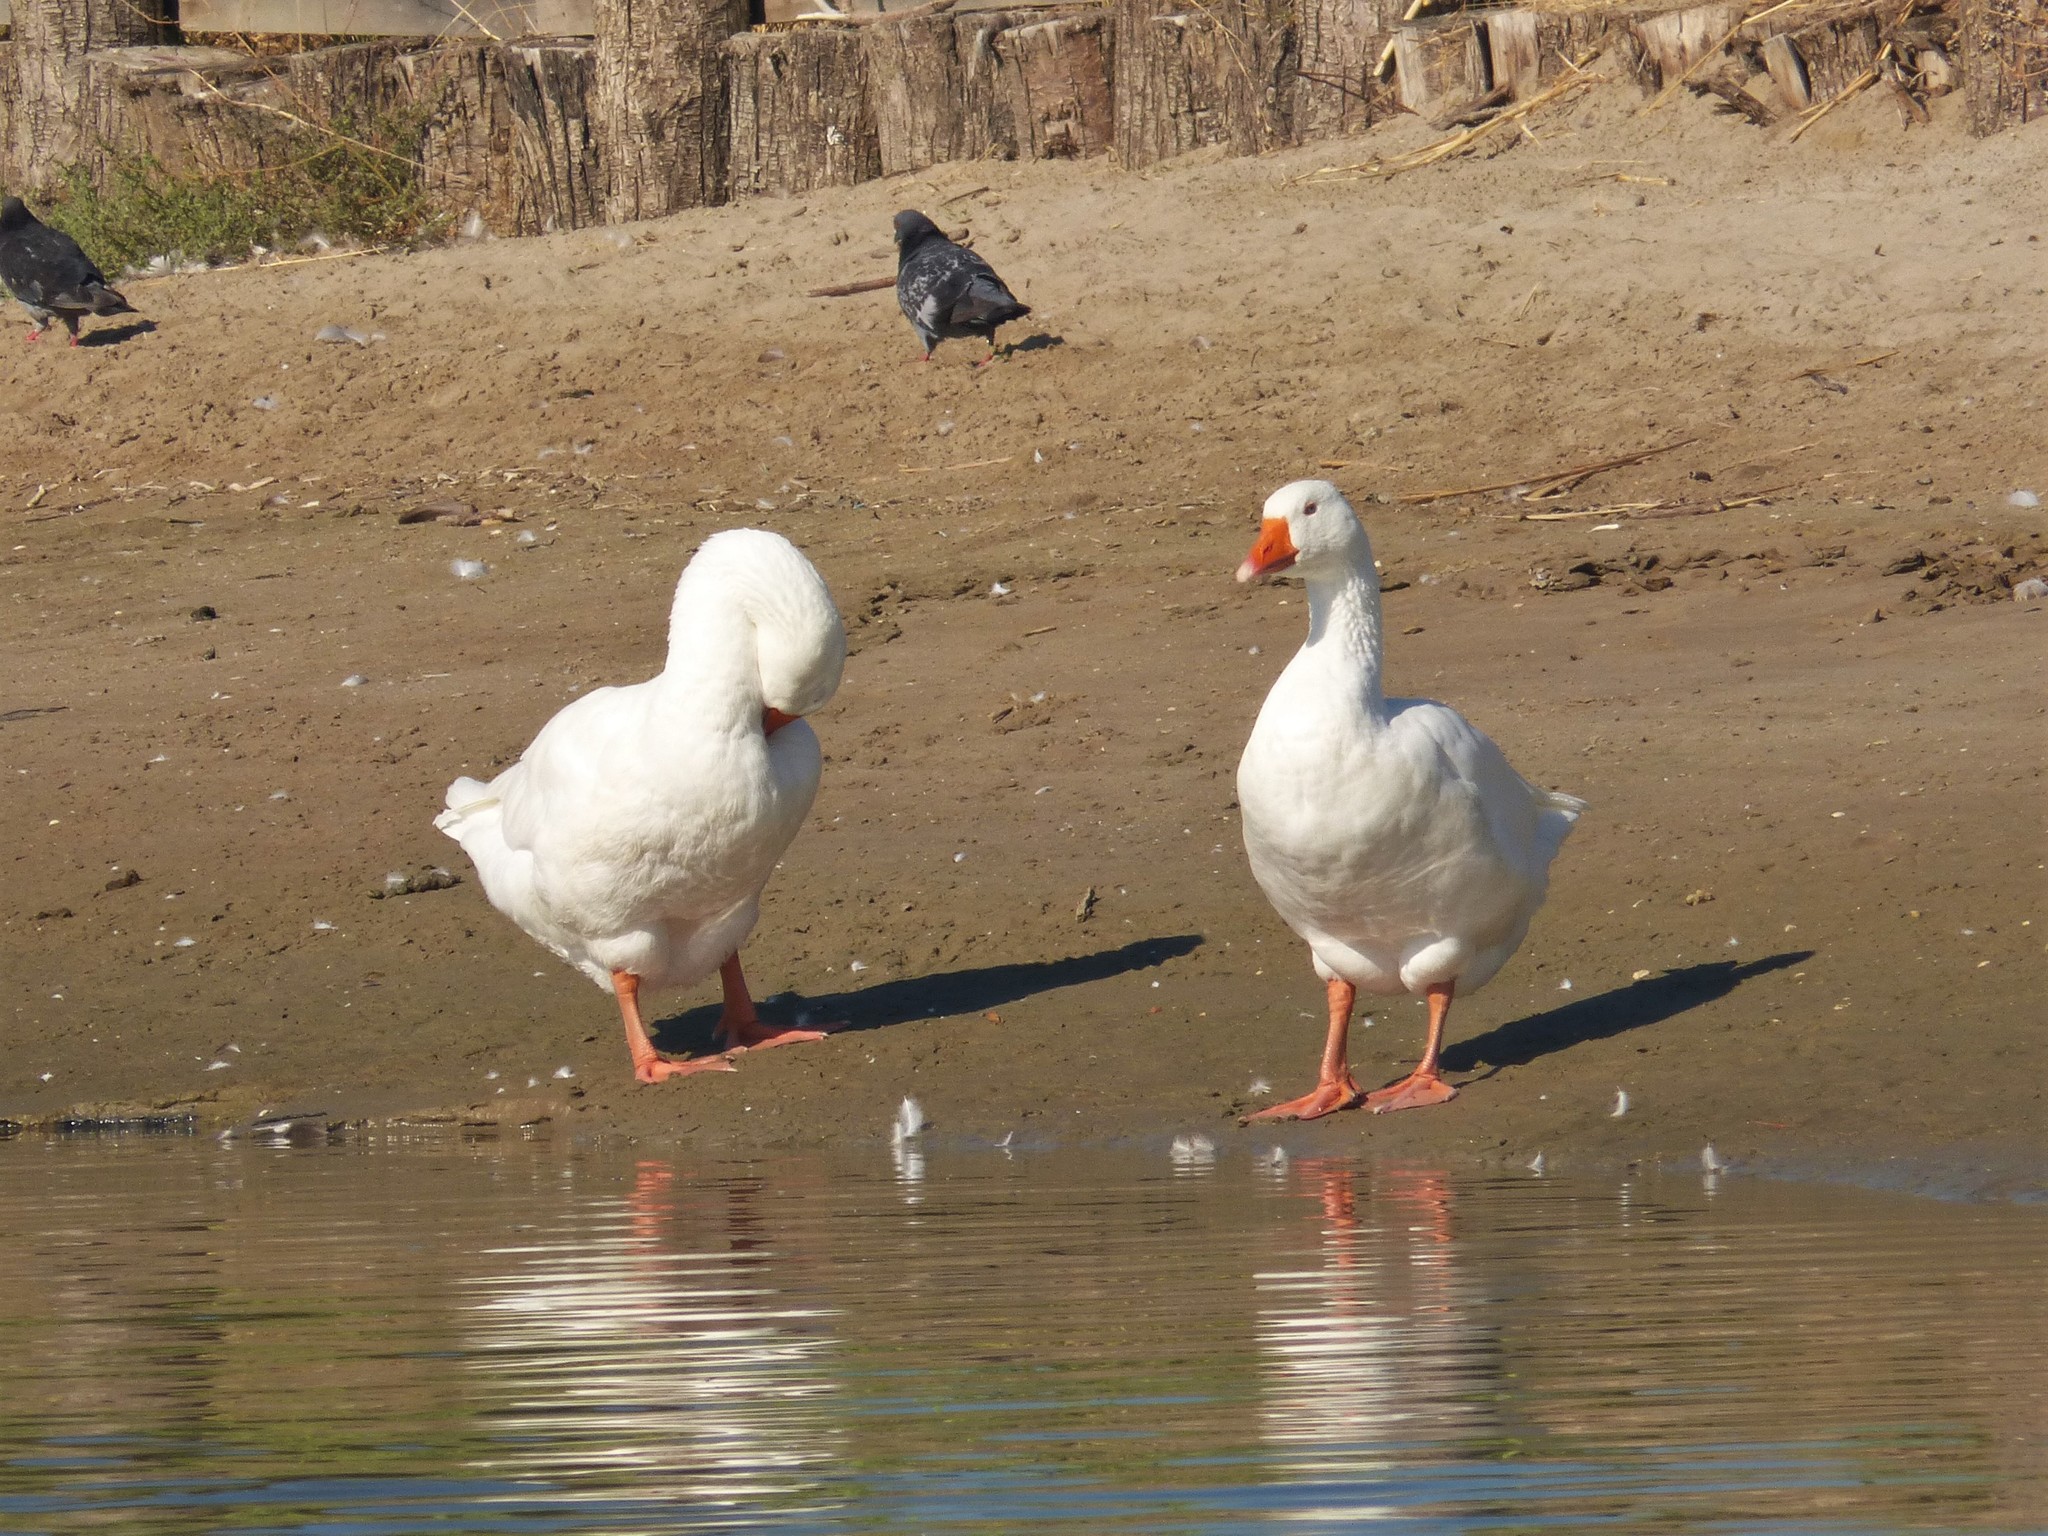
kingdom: Animalia
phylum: Chordata
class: Aves
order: Anseriformes
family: Anatidae
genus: Anser
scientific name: Anser anser
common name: Greylag goose
